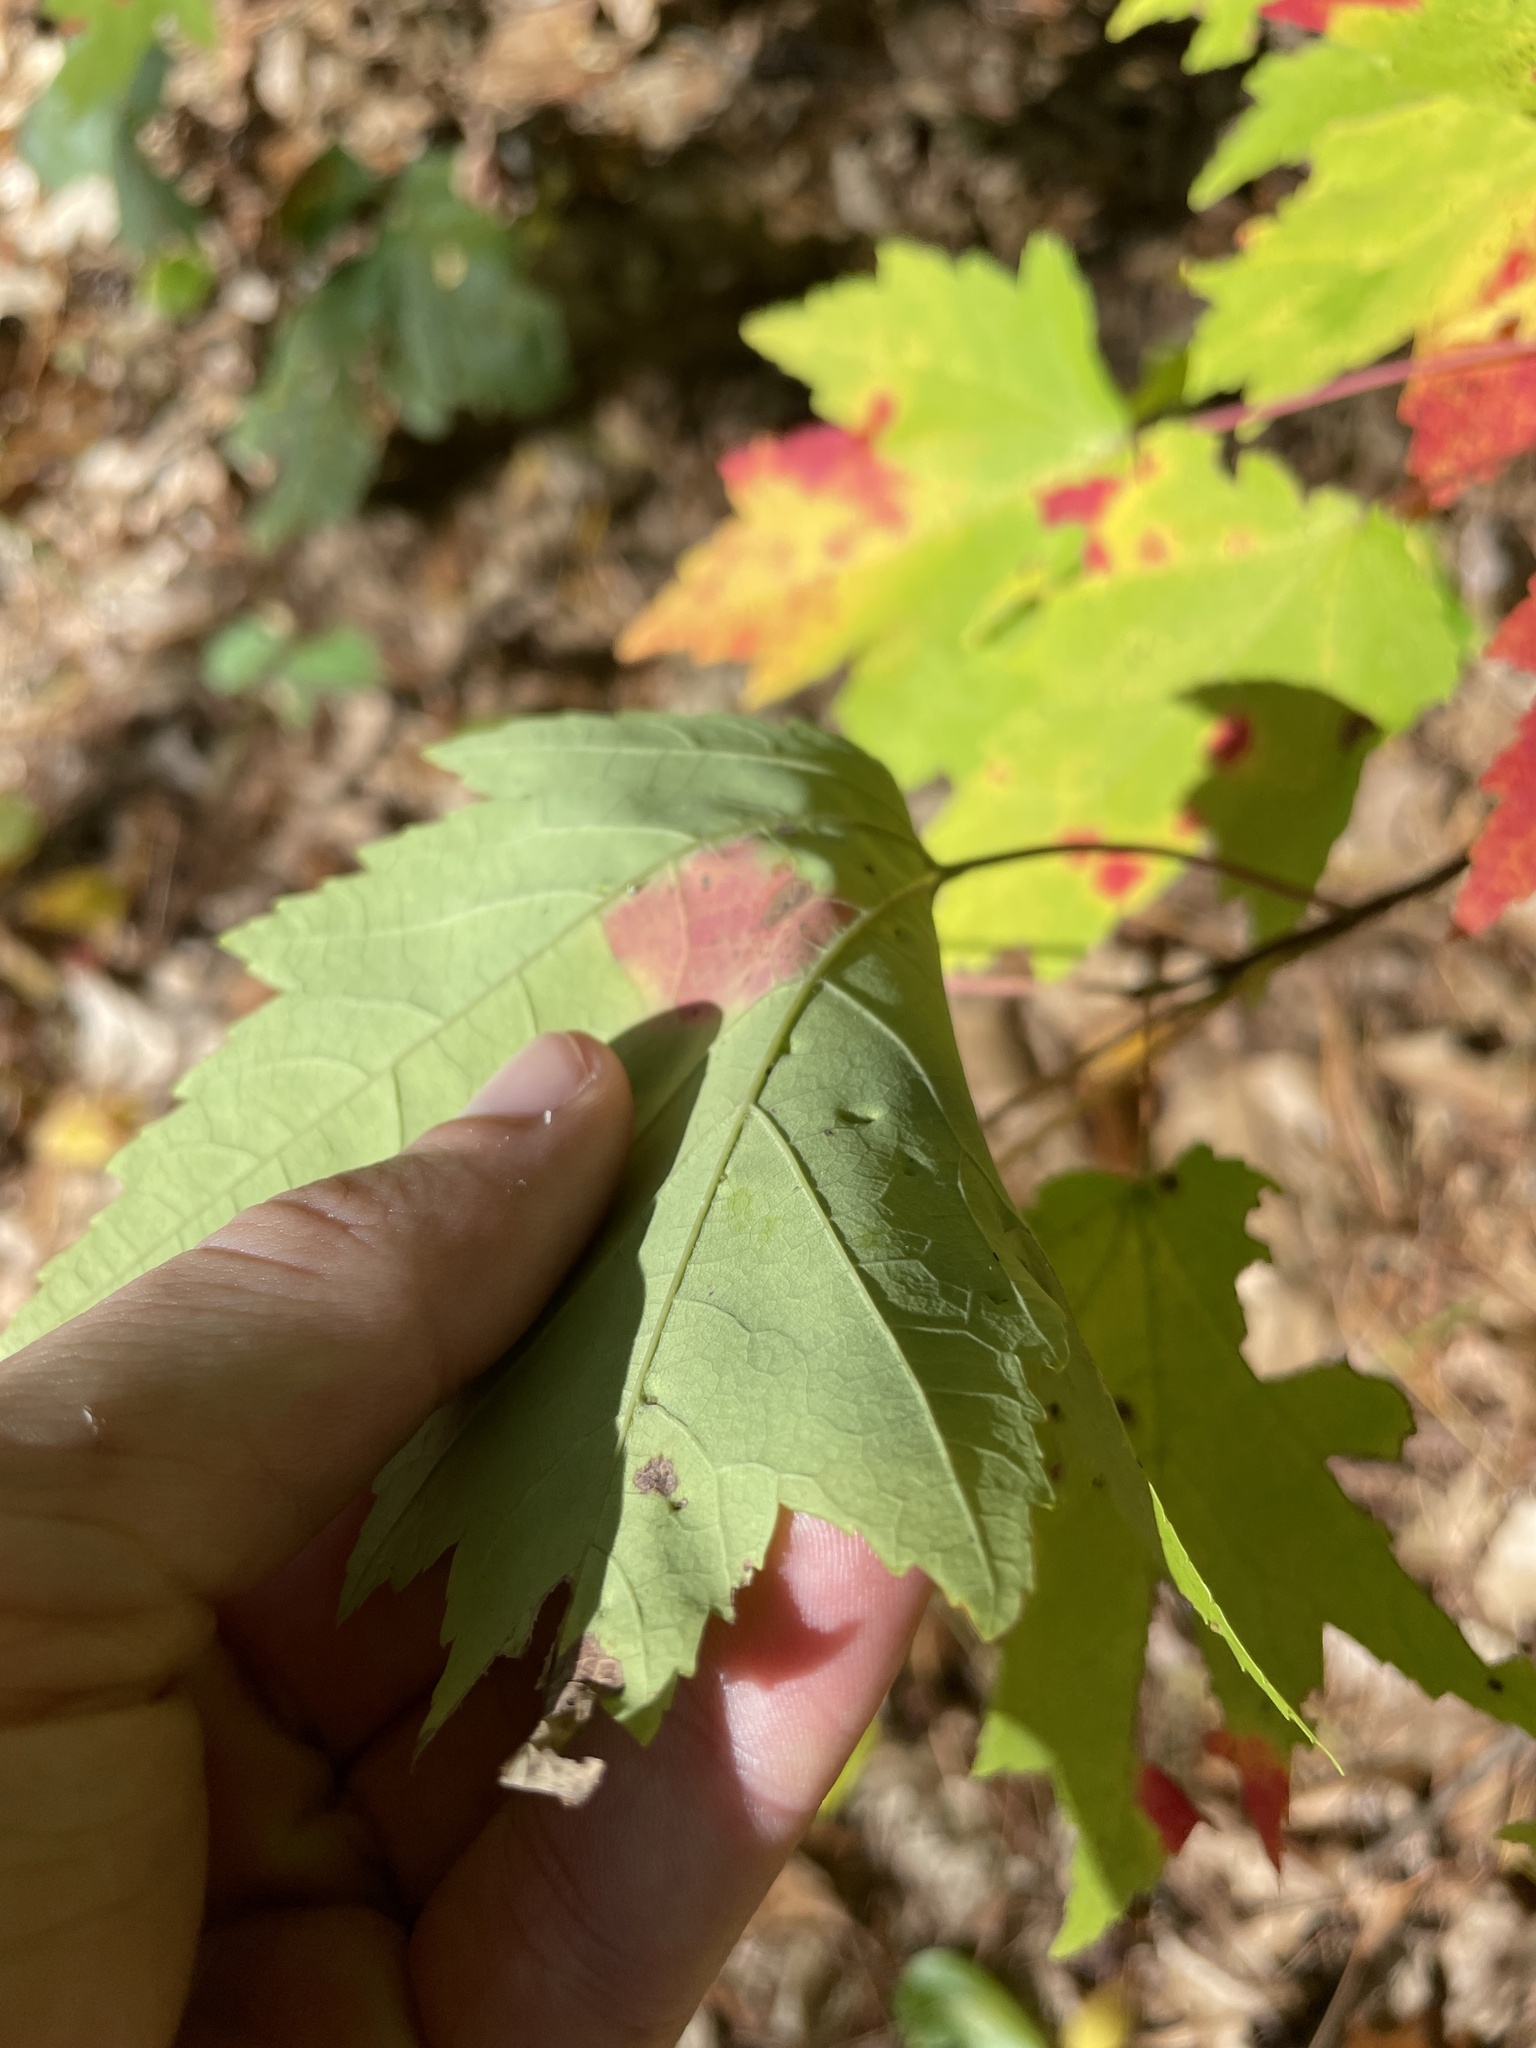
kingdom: Plantae
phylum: Tracheophyta
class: Magnoliopsida
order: Sapindales
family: Sapindaceae
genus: Acer
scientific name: Acer rubrum
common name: Red maple
